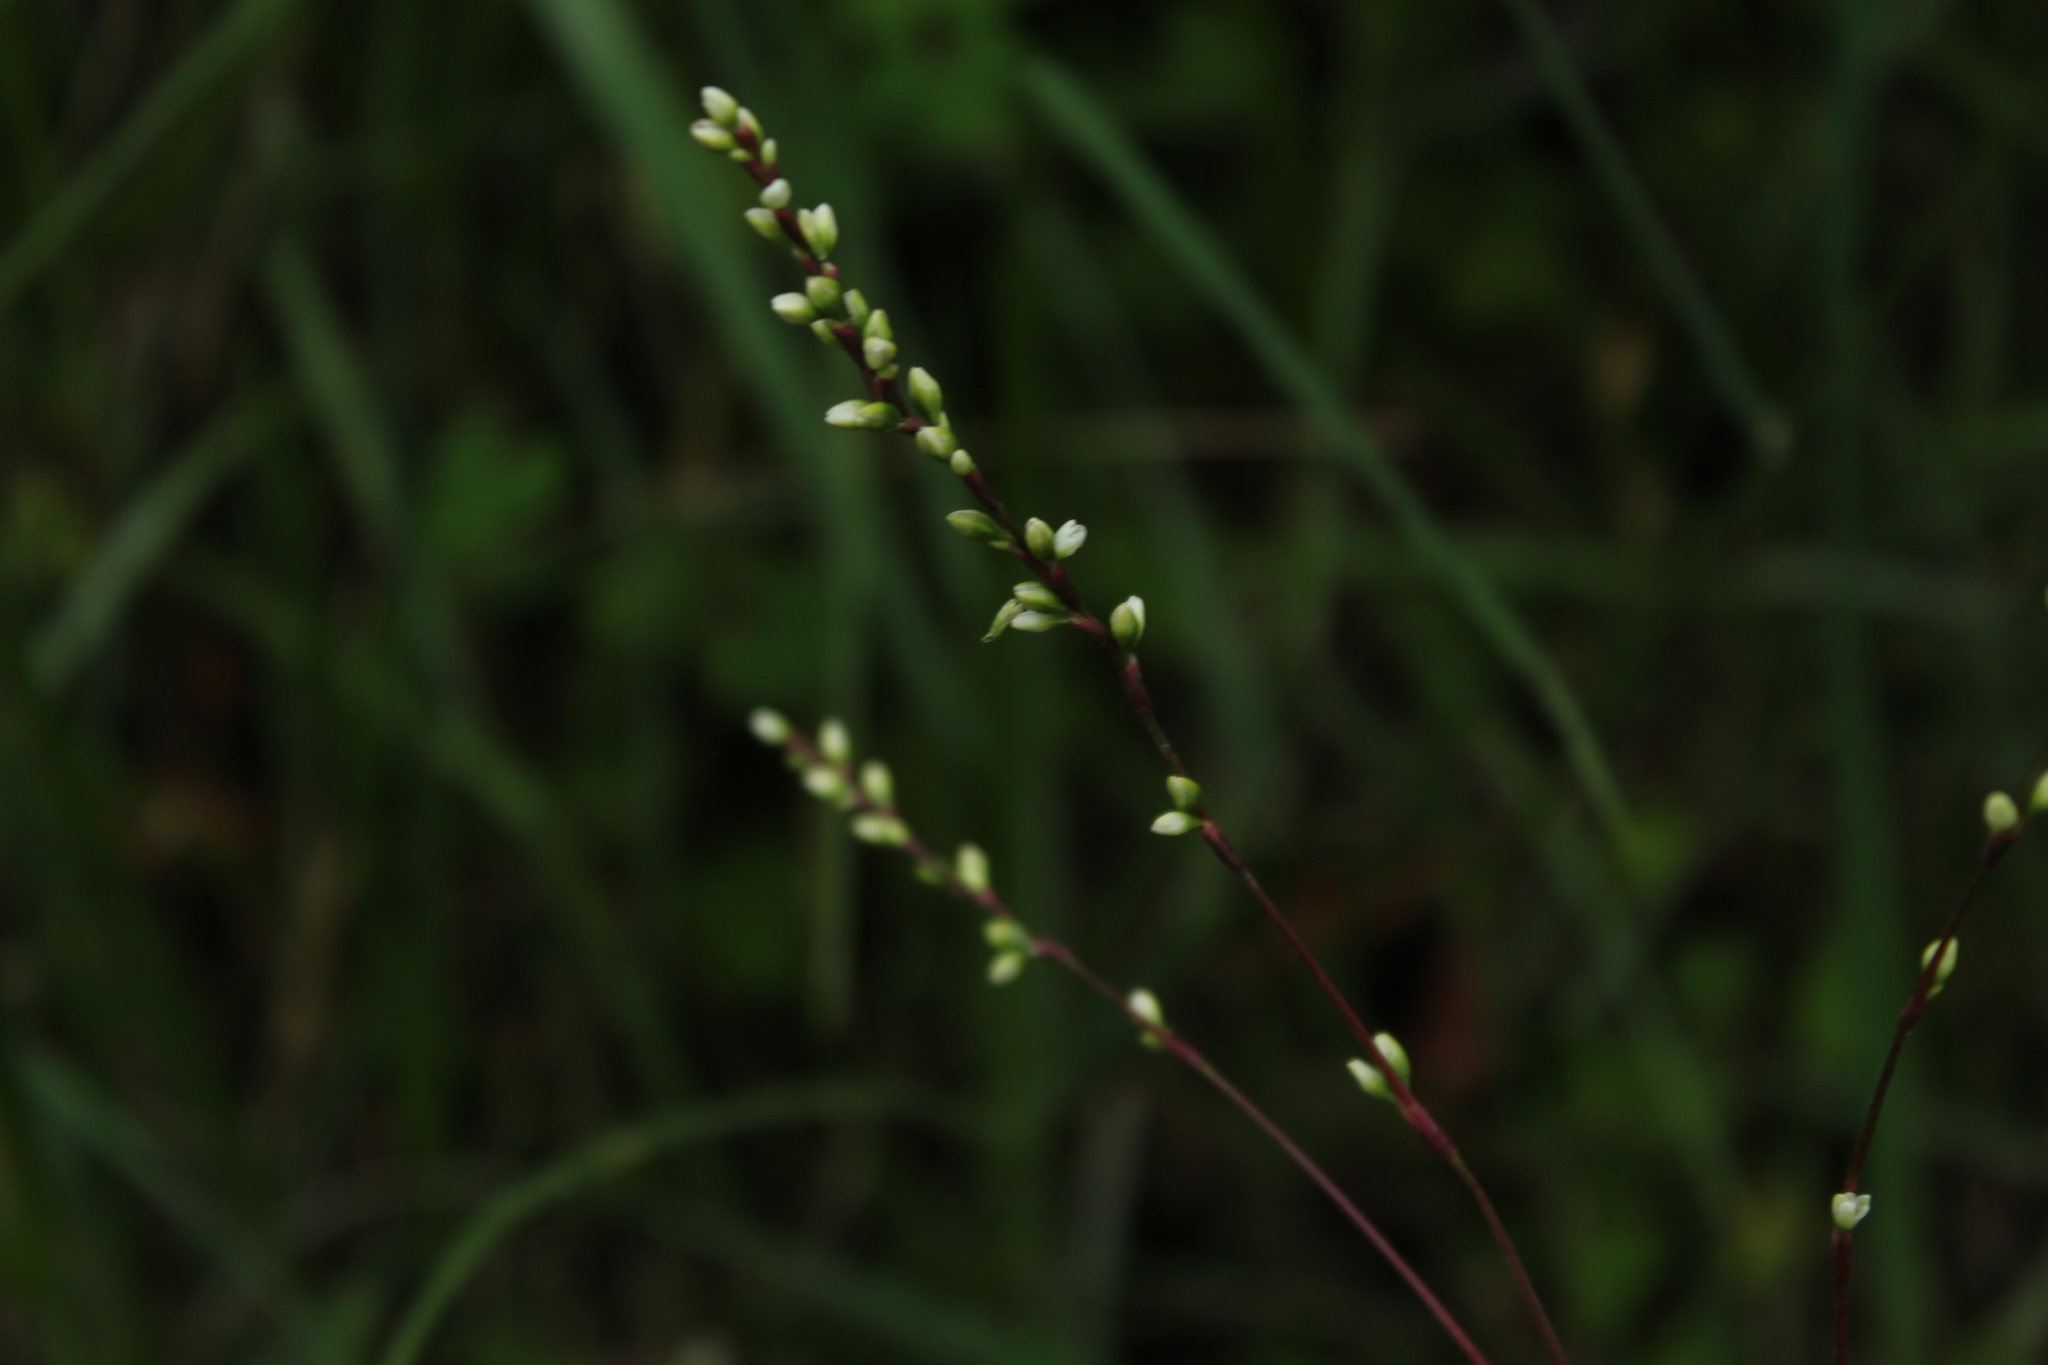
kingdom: Plantae
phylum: Tracheophyta
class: Magnoliopsida
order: Caryophyllales
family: Polygonaceae
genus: Persicaria
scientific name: Persicaria punctata
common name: Dotted smartweed
